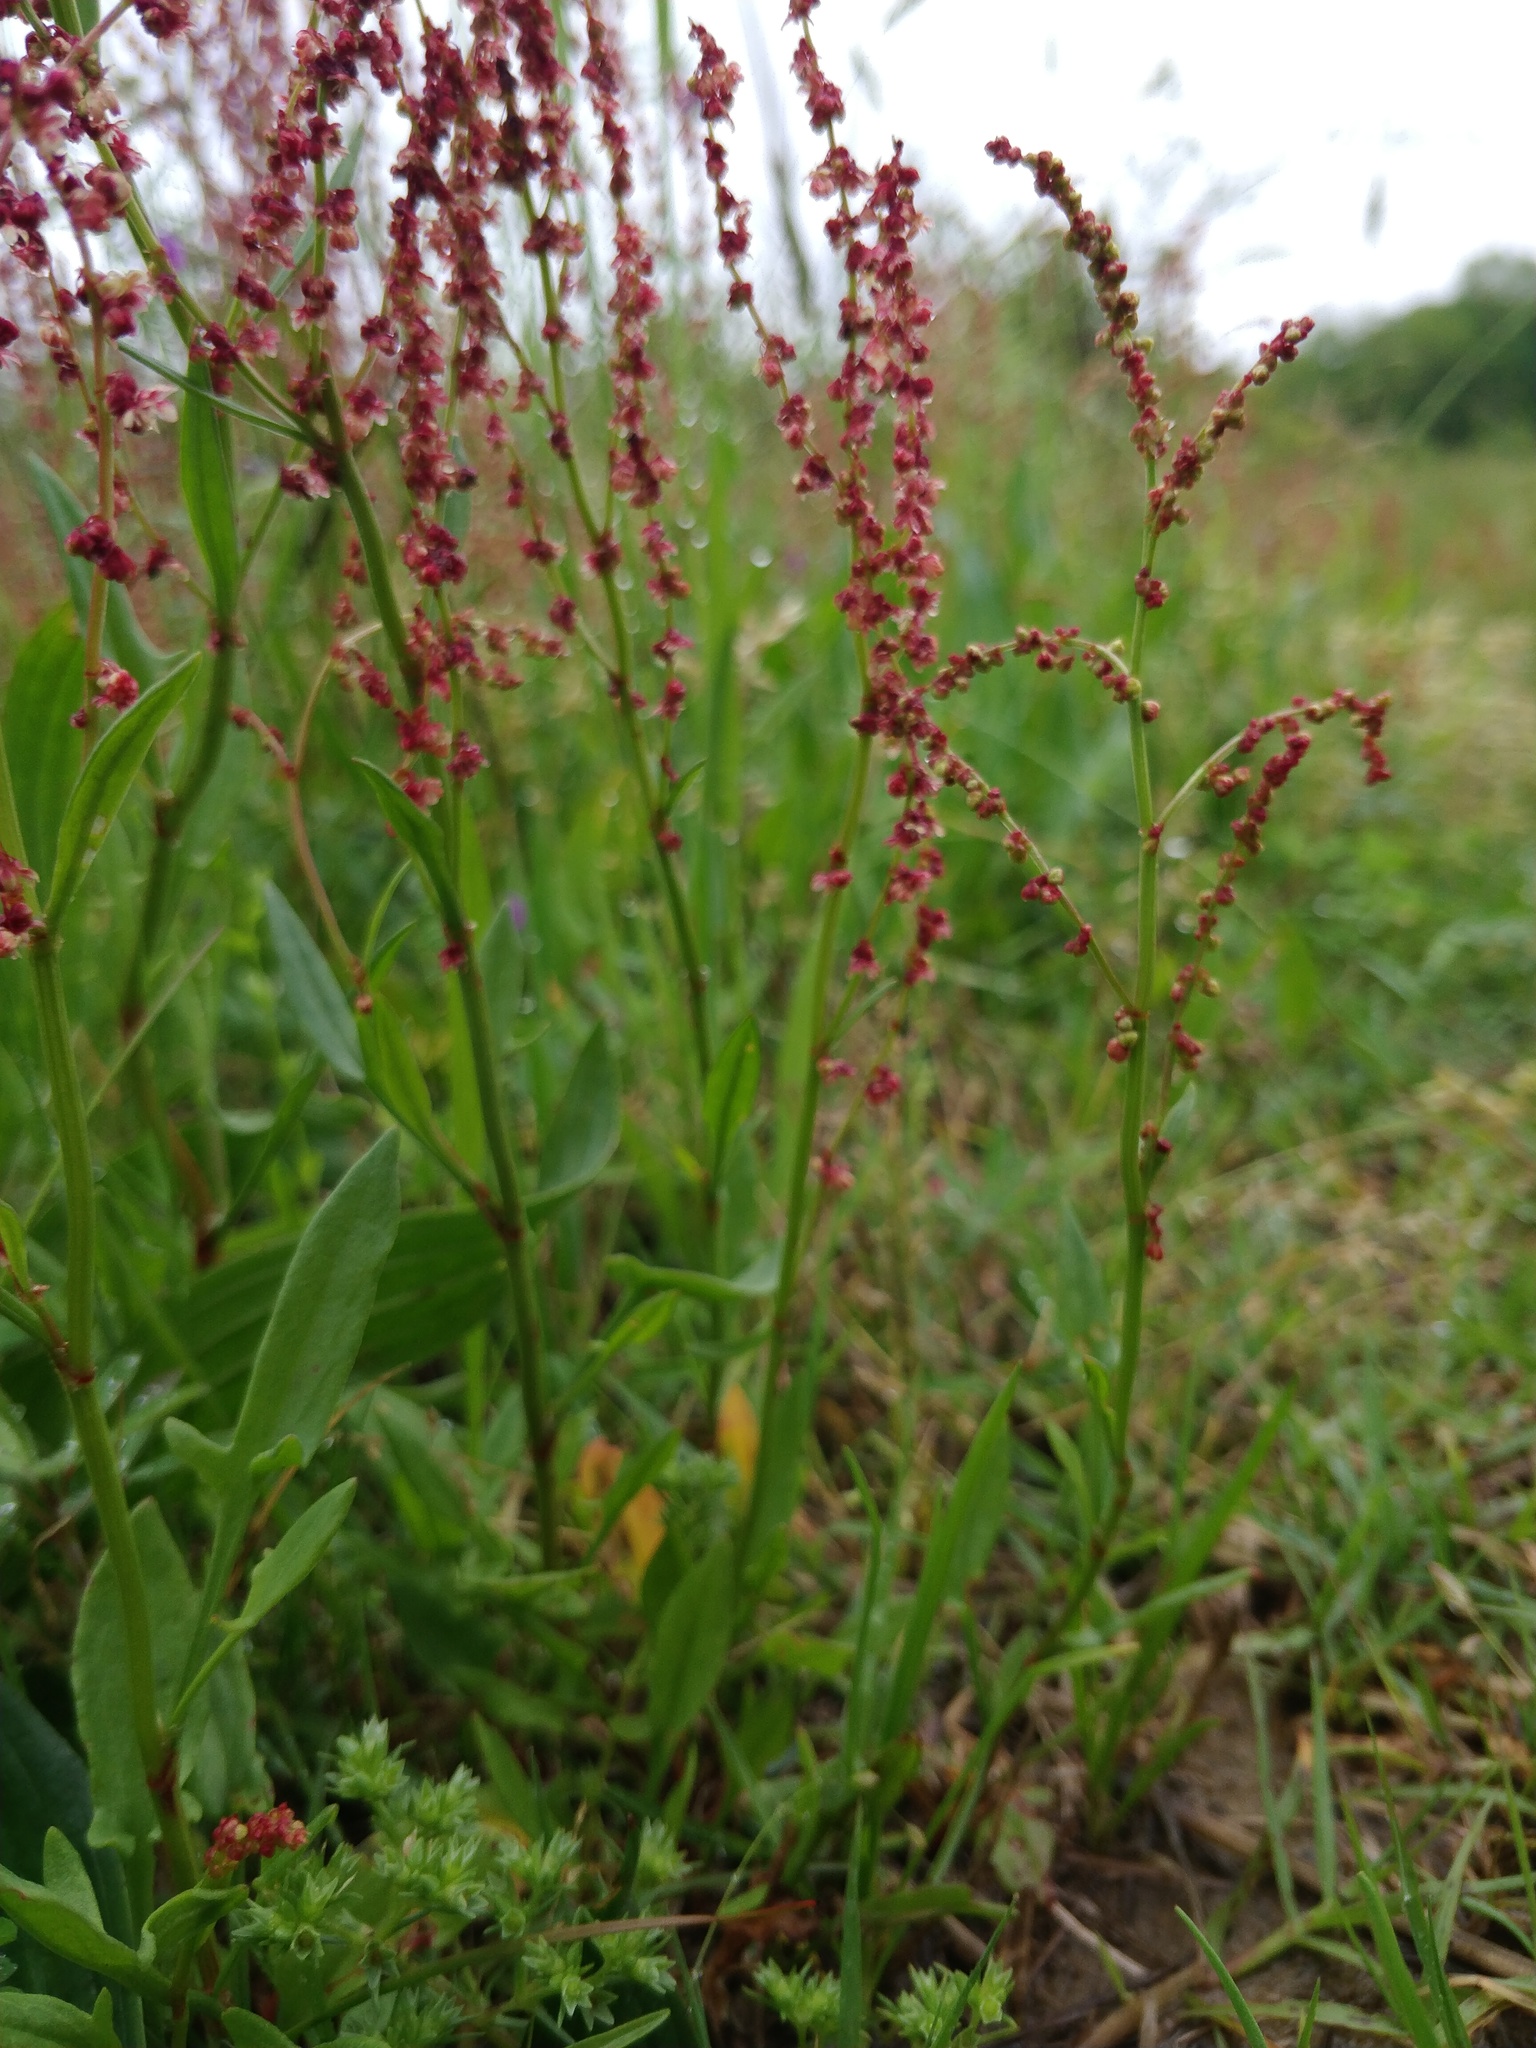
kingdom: Plantae
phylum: Tracheophyta
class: Magnoliopsida
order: Caryophyllales
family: Polygonaceae
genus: Rumex
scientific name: Rumex acetosella
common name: Common sheep sorrel
